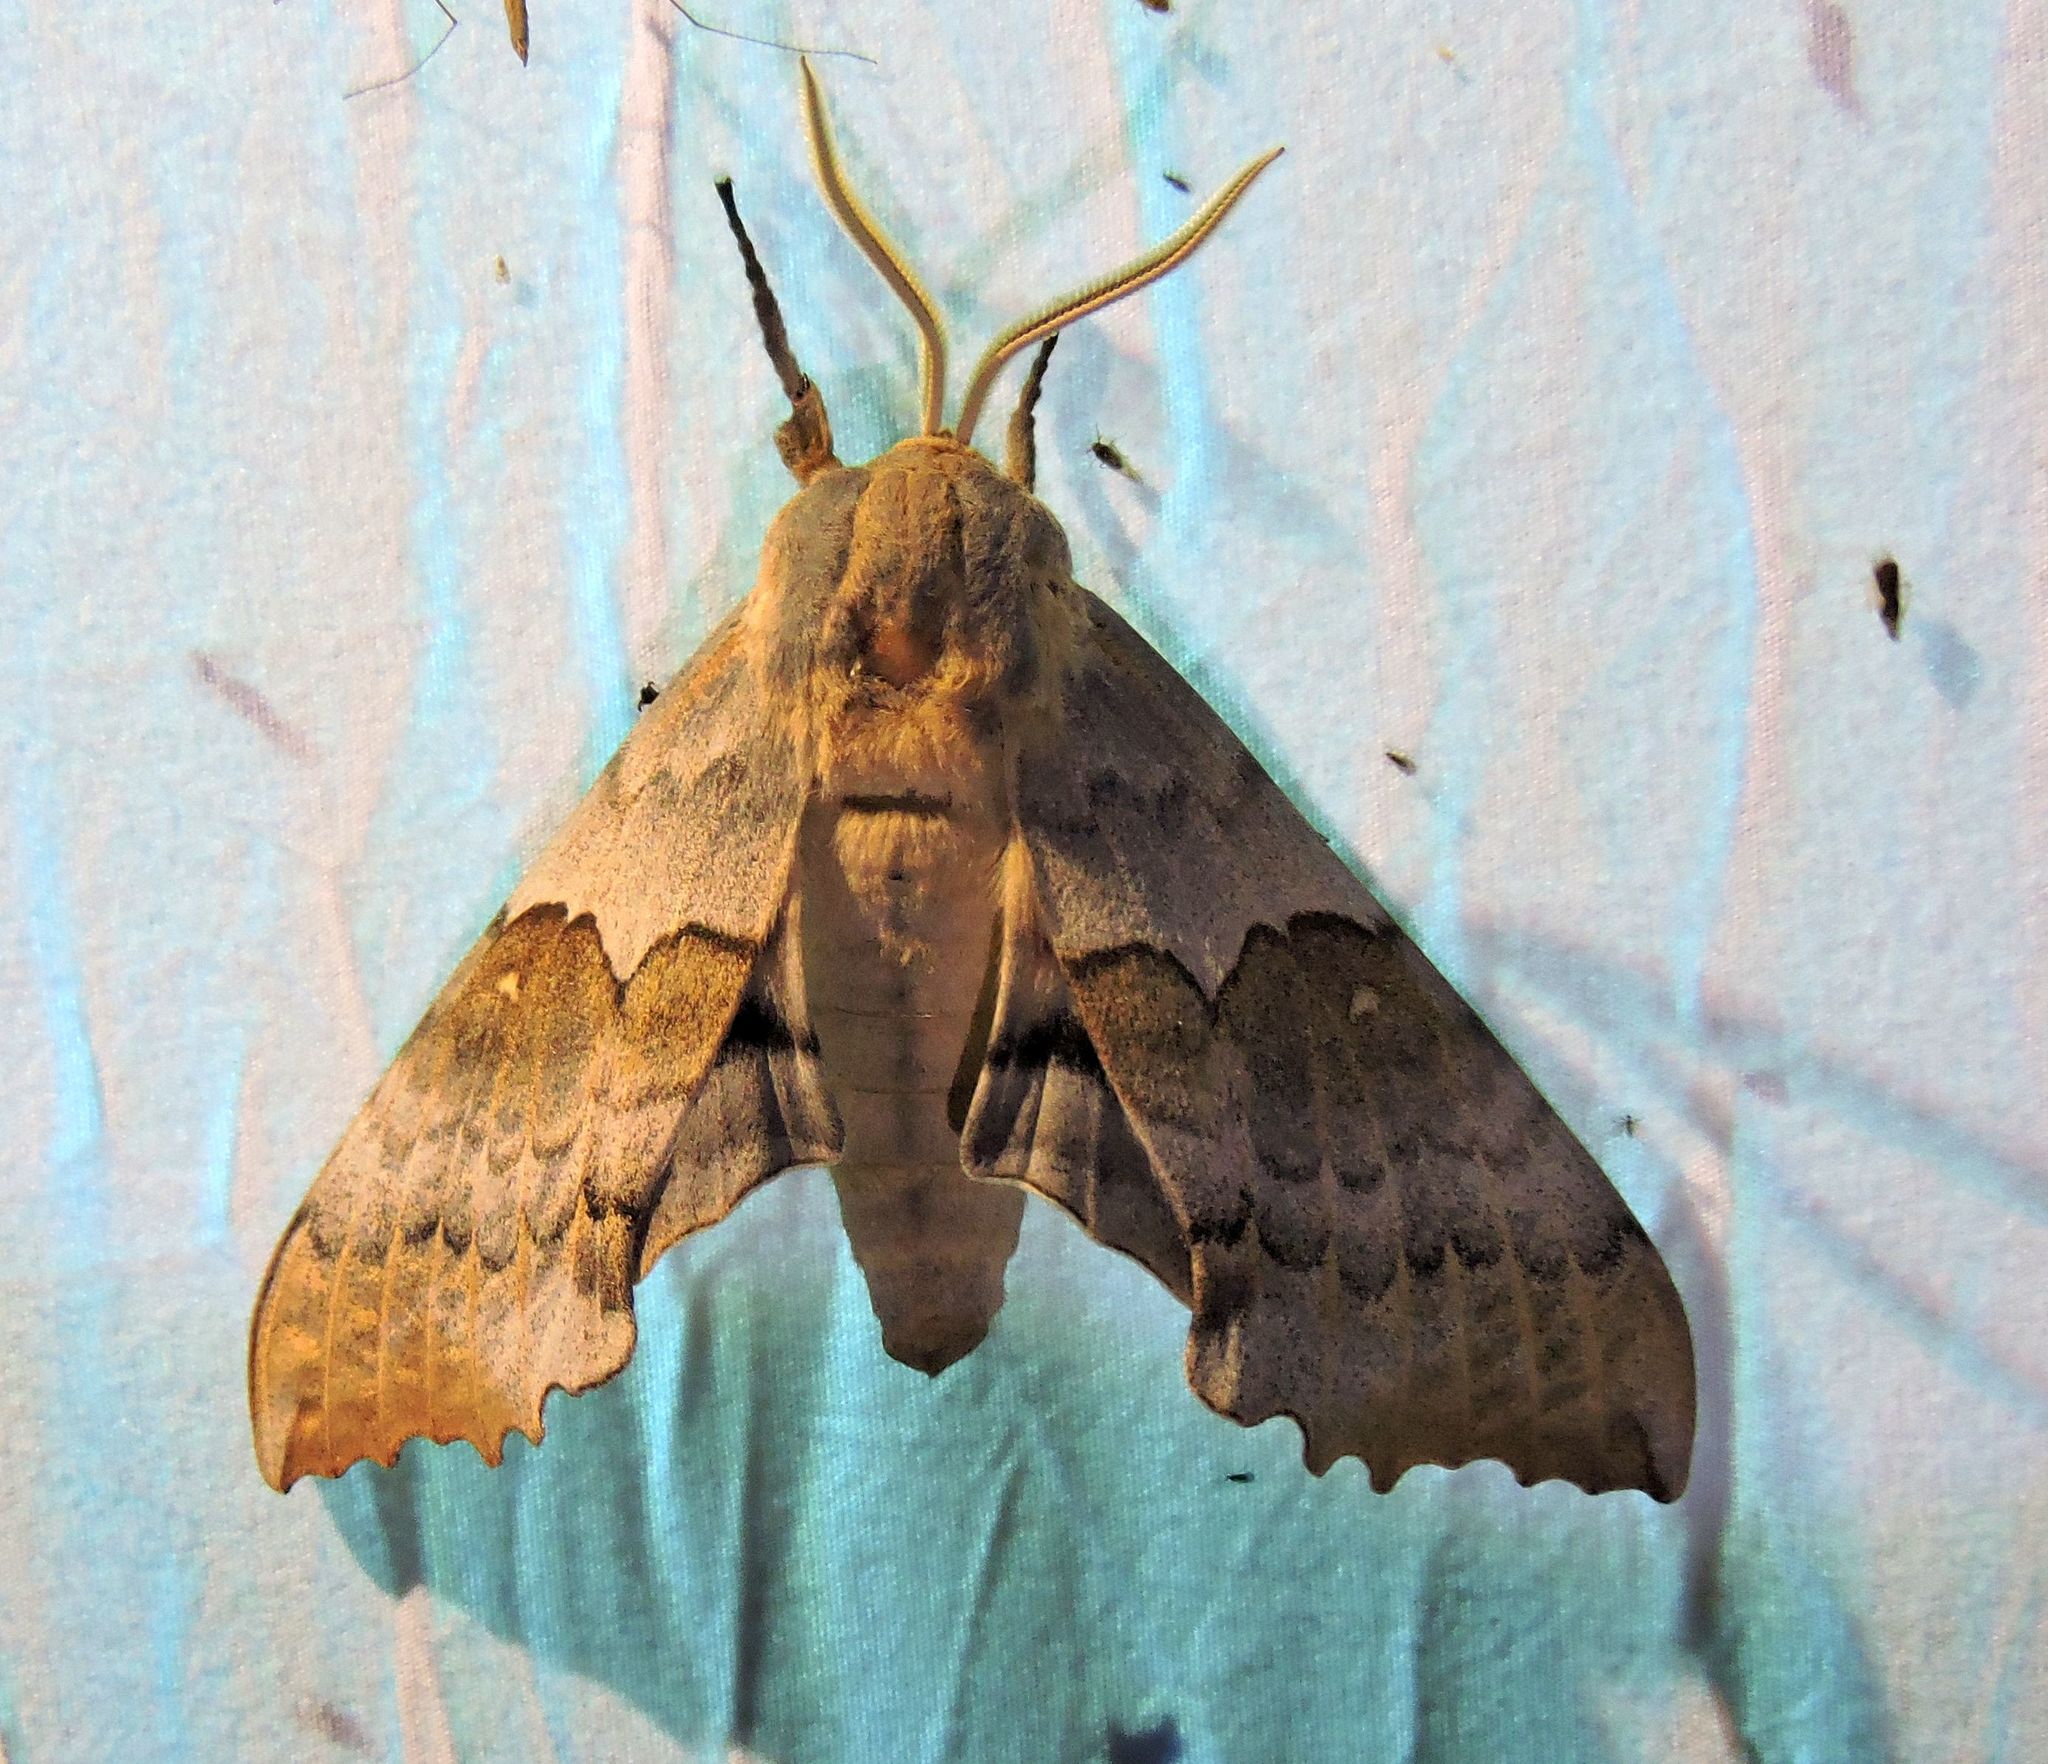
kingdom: Animalia
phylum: Arthropoda
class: Insecta
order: Lepidoptera
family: Sphingidae
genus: Pachysphinx
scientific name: Pachysphinx occidentalis
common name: Western poplar sphinx
